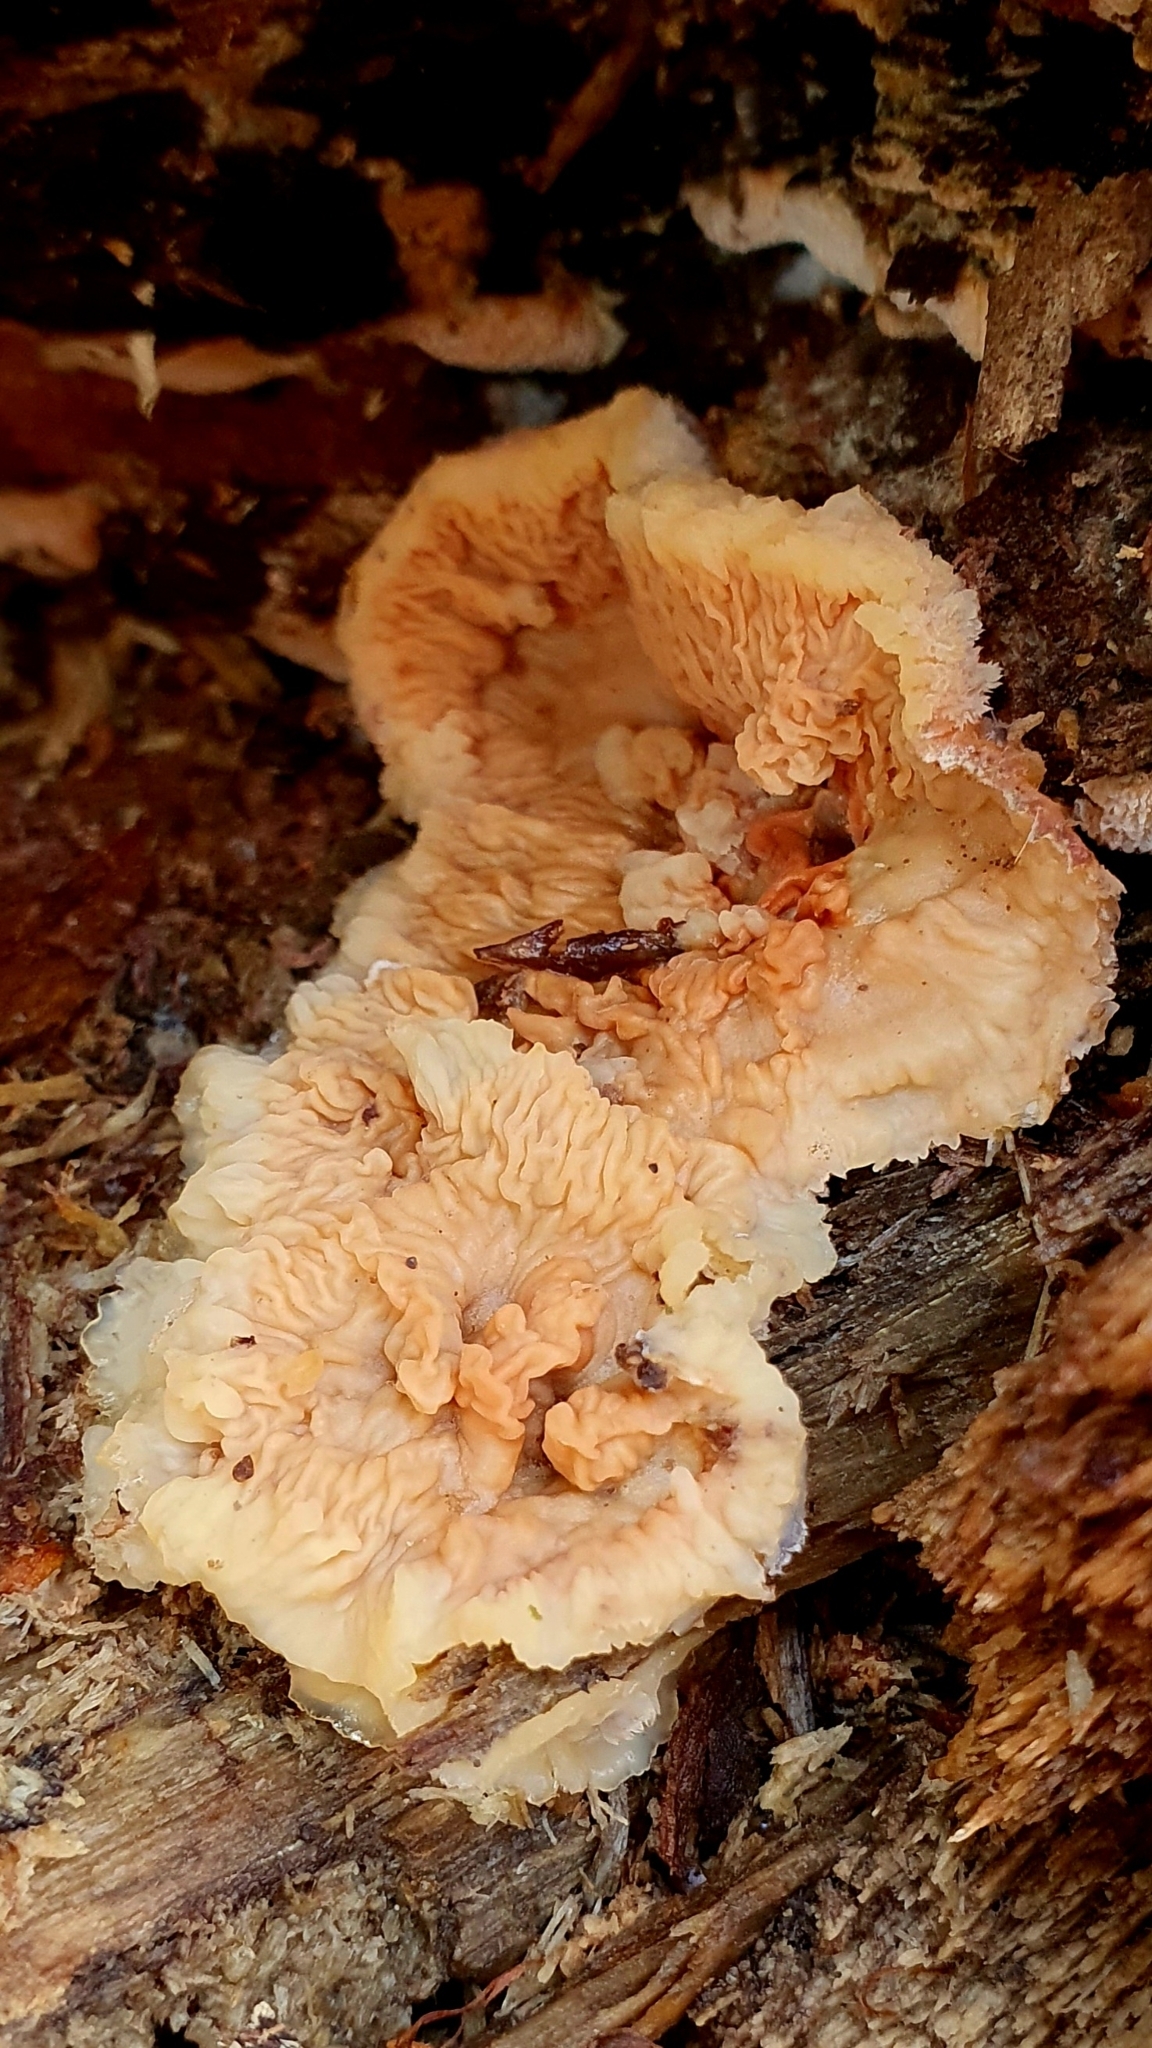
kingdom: Fungi
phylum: Basidiomycota
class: Agaricomycetes
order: Polyporales
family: Meruliaceae
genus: Phlebia
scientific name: Phlebia tremellosa
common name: Jelly rot
